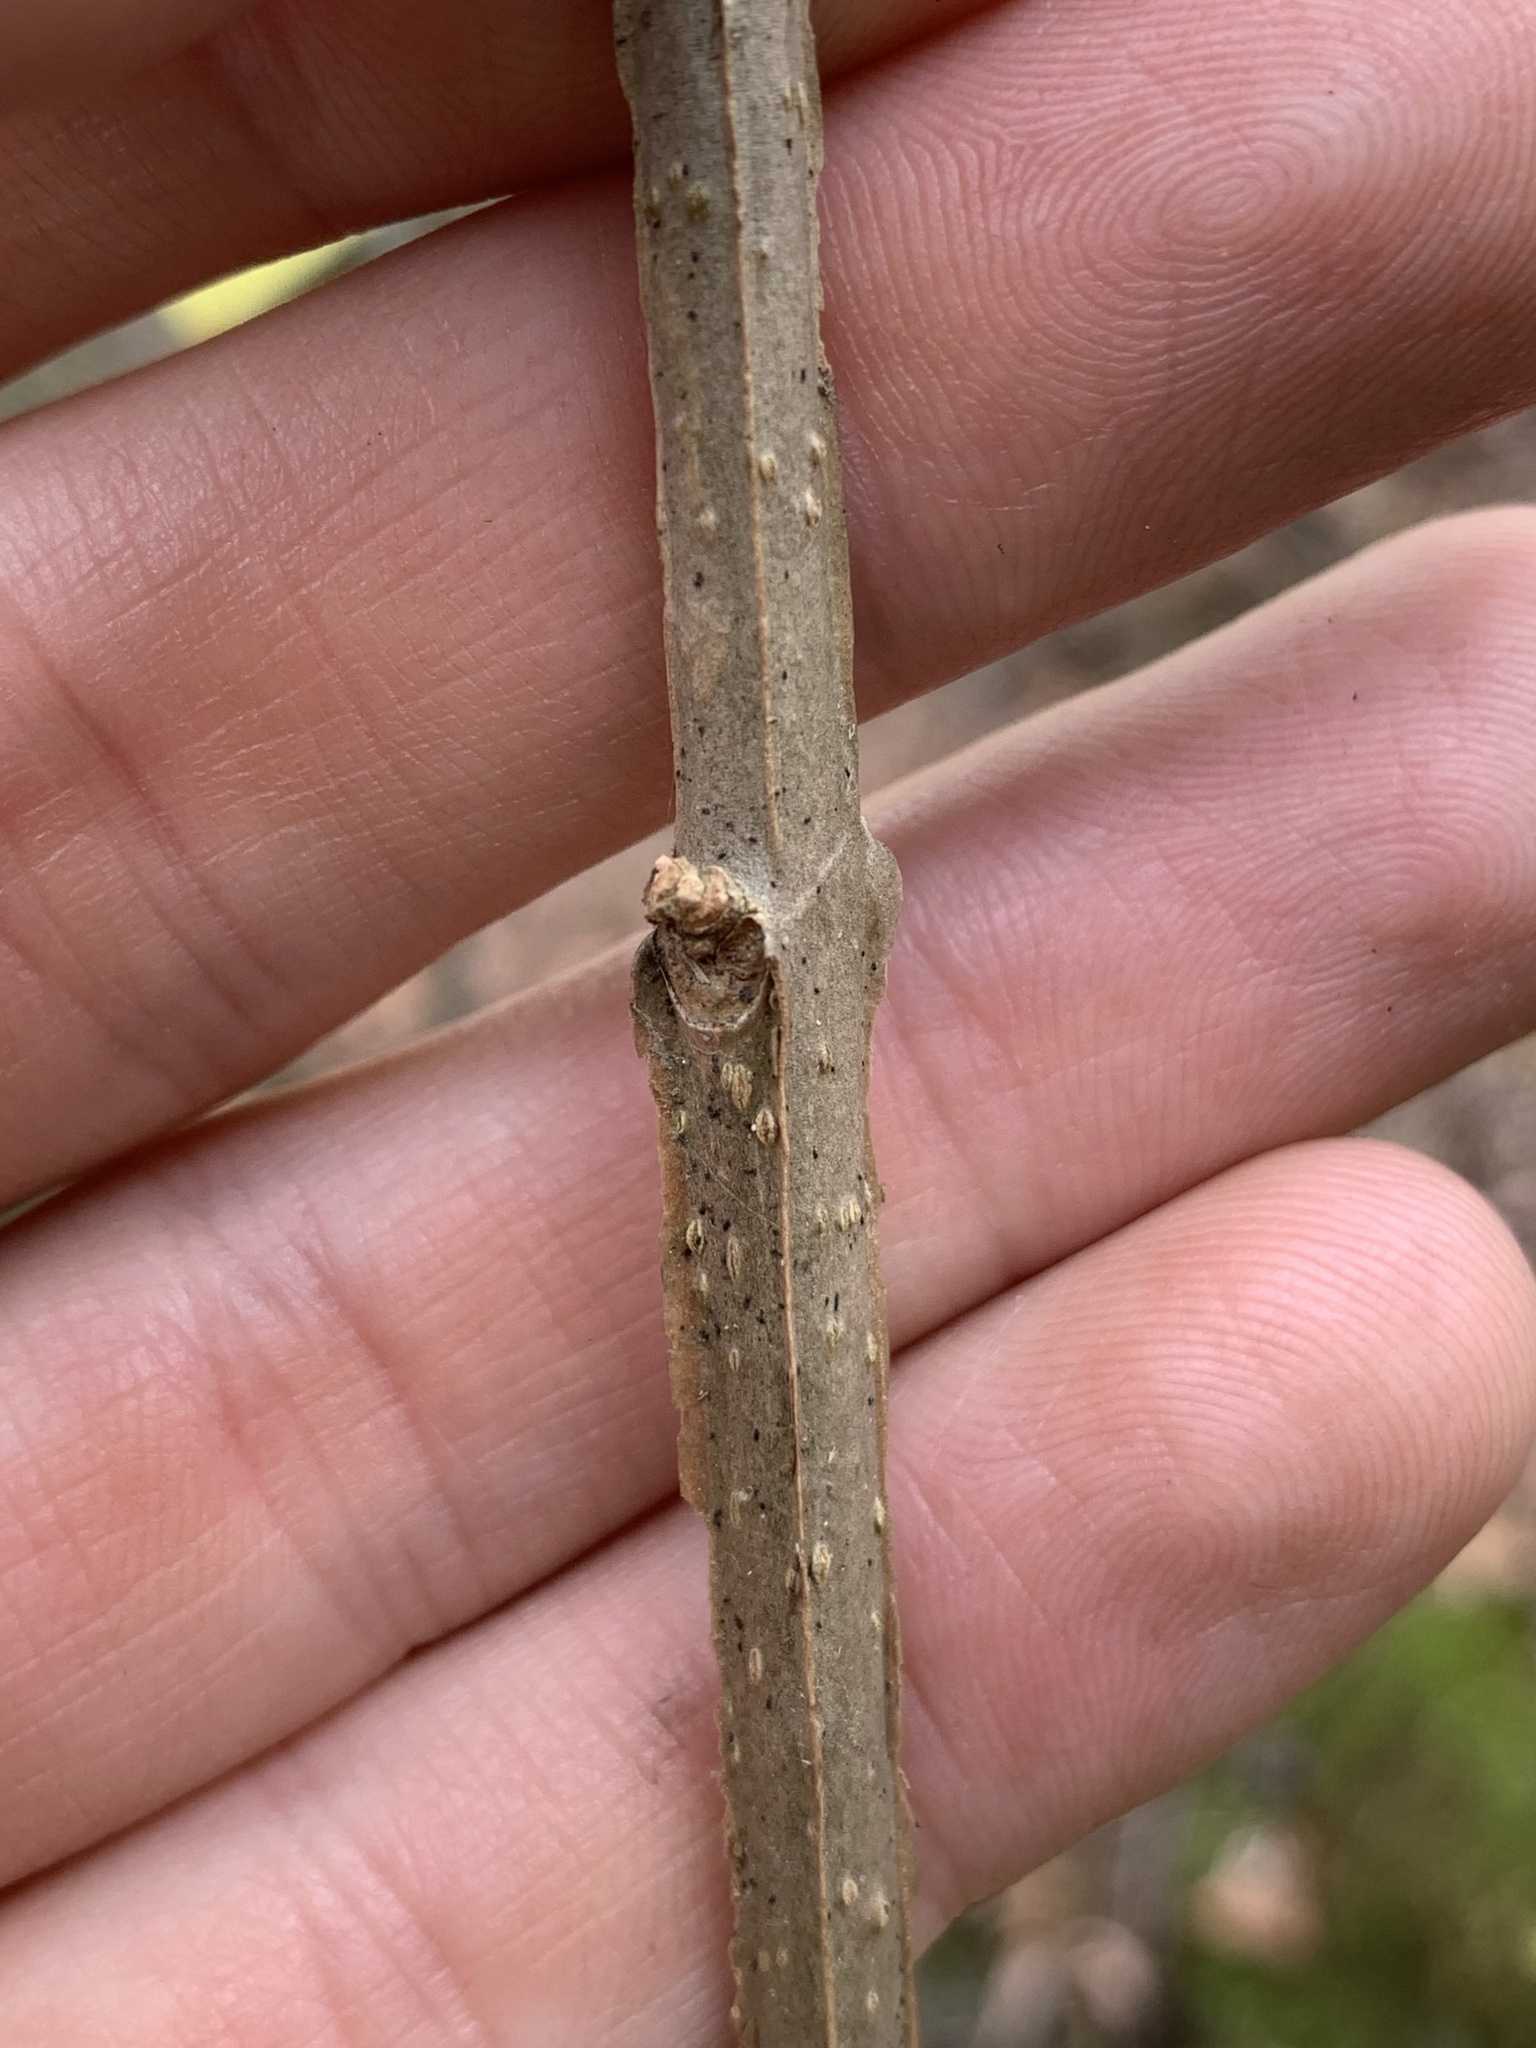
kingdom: Plantae
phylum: Tracheophyta
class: Magnoliopsida
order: Lamiales
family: Oleaceae
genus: Fraxinus
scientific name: Fraxinus quadrangulata
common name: Blue ash
